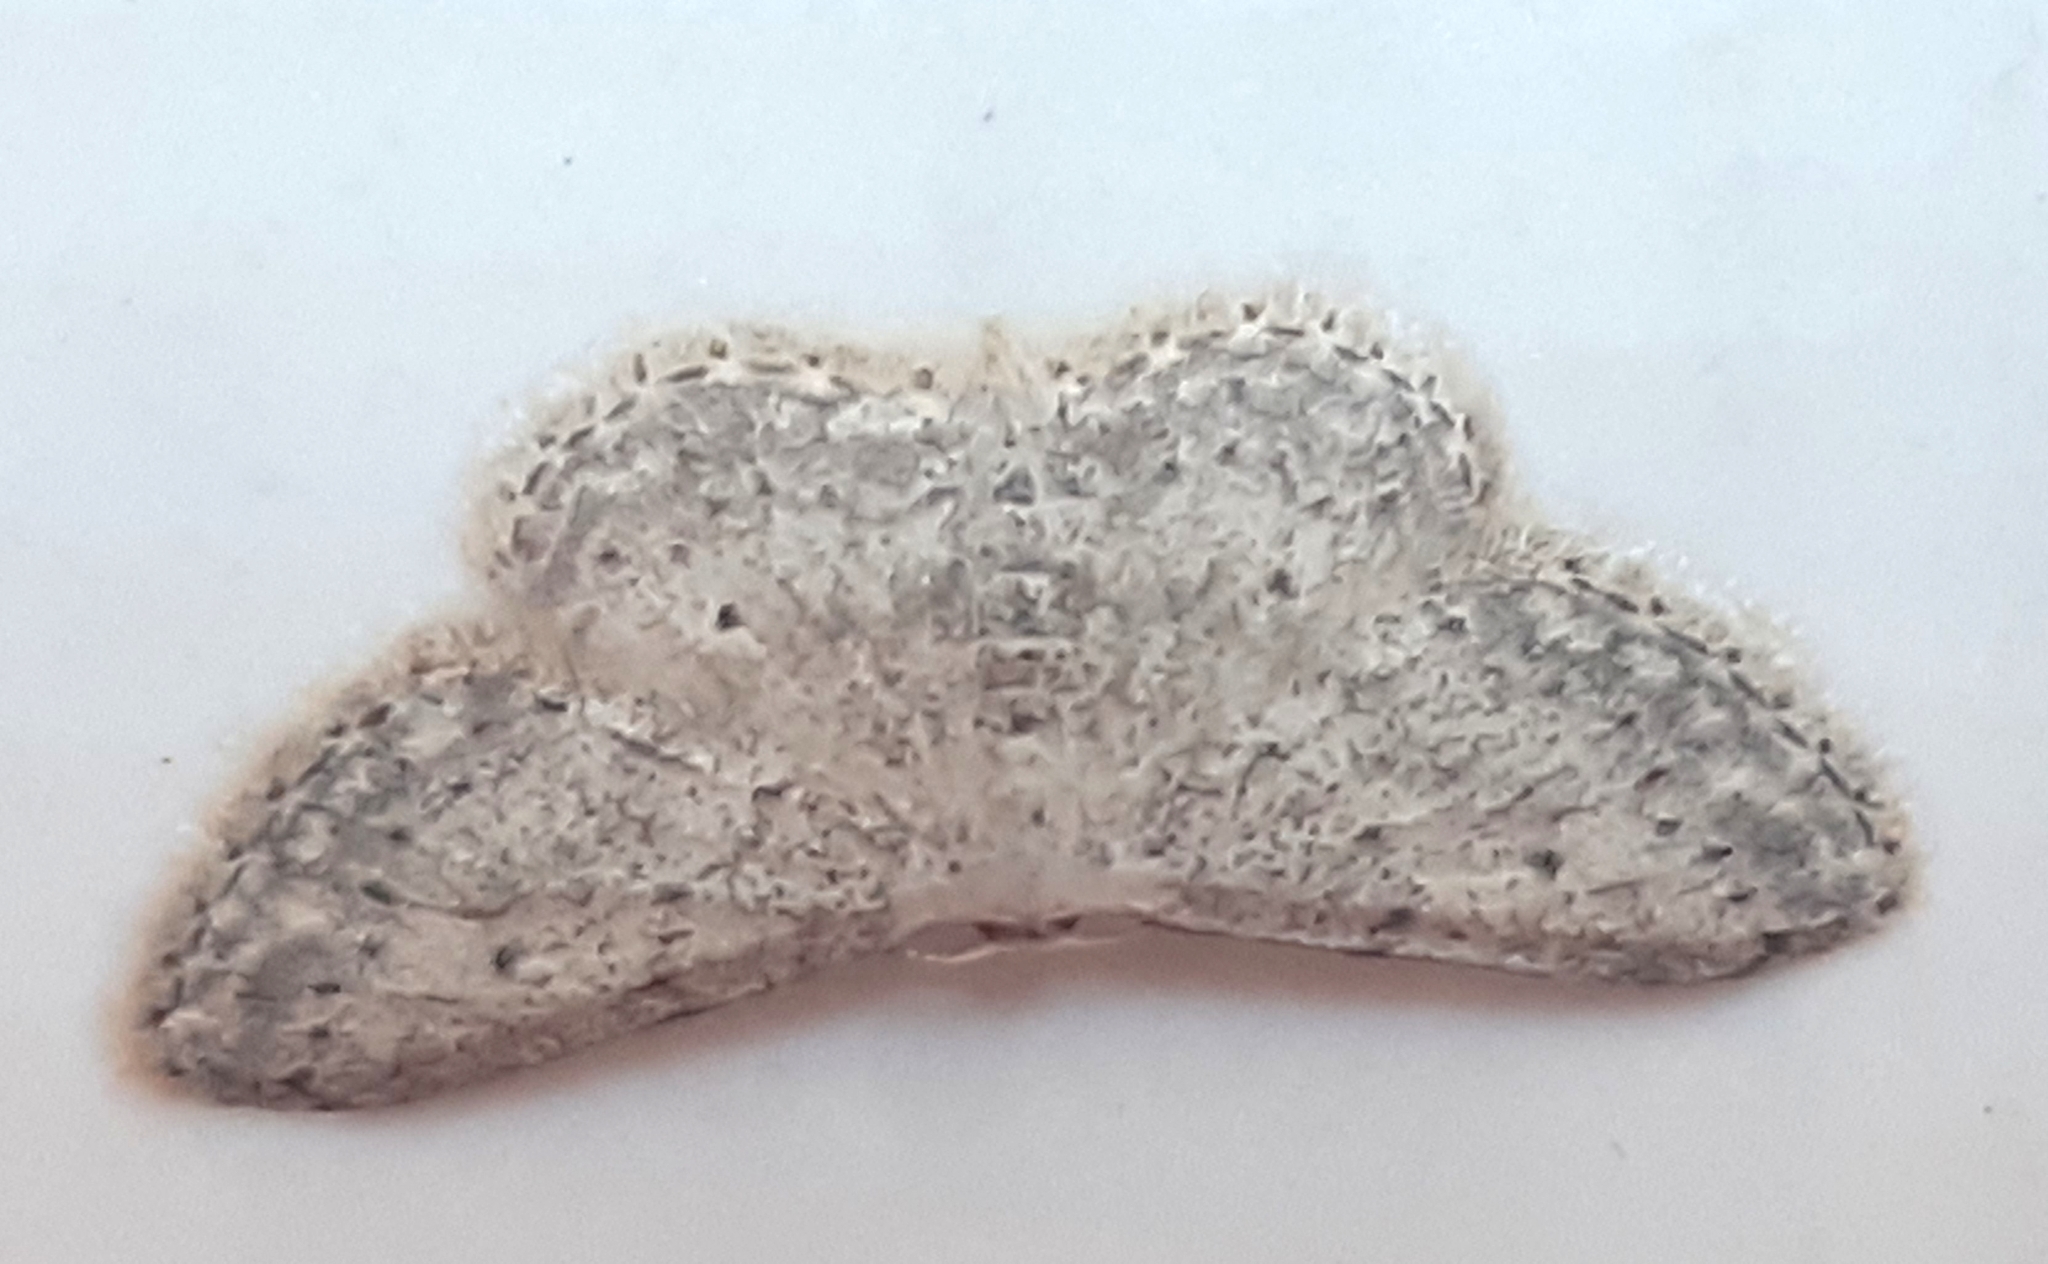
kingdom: Animalia
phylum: Arthropoda
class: Insecta
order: Lepidoptera
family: Geometridae
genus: Idaea
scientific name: Idaea seriata
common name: Small dusty wave
